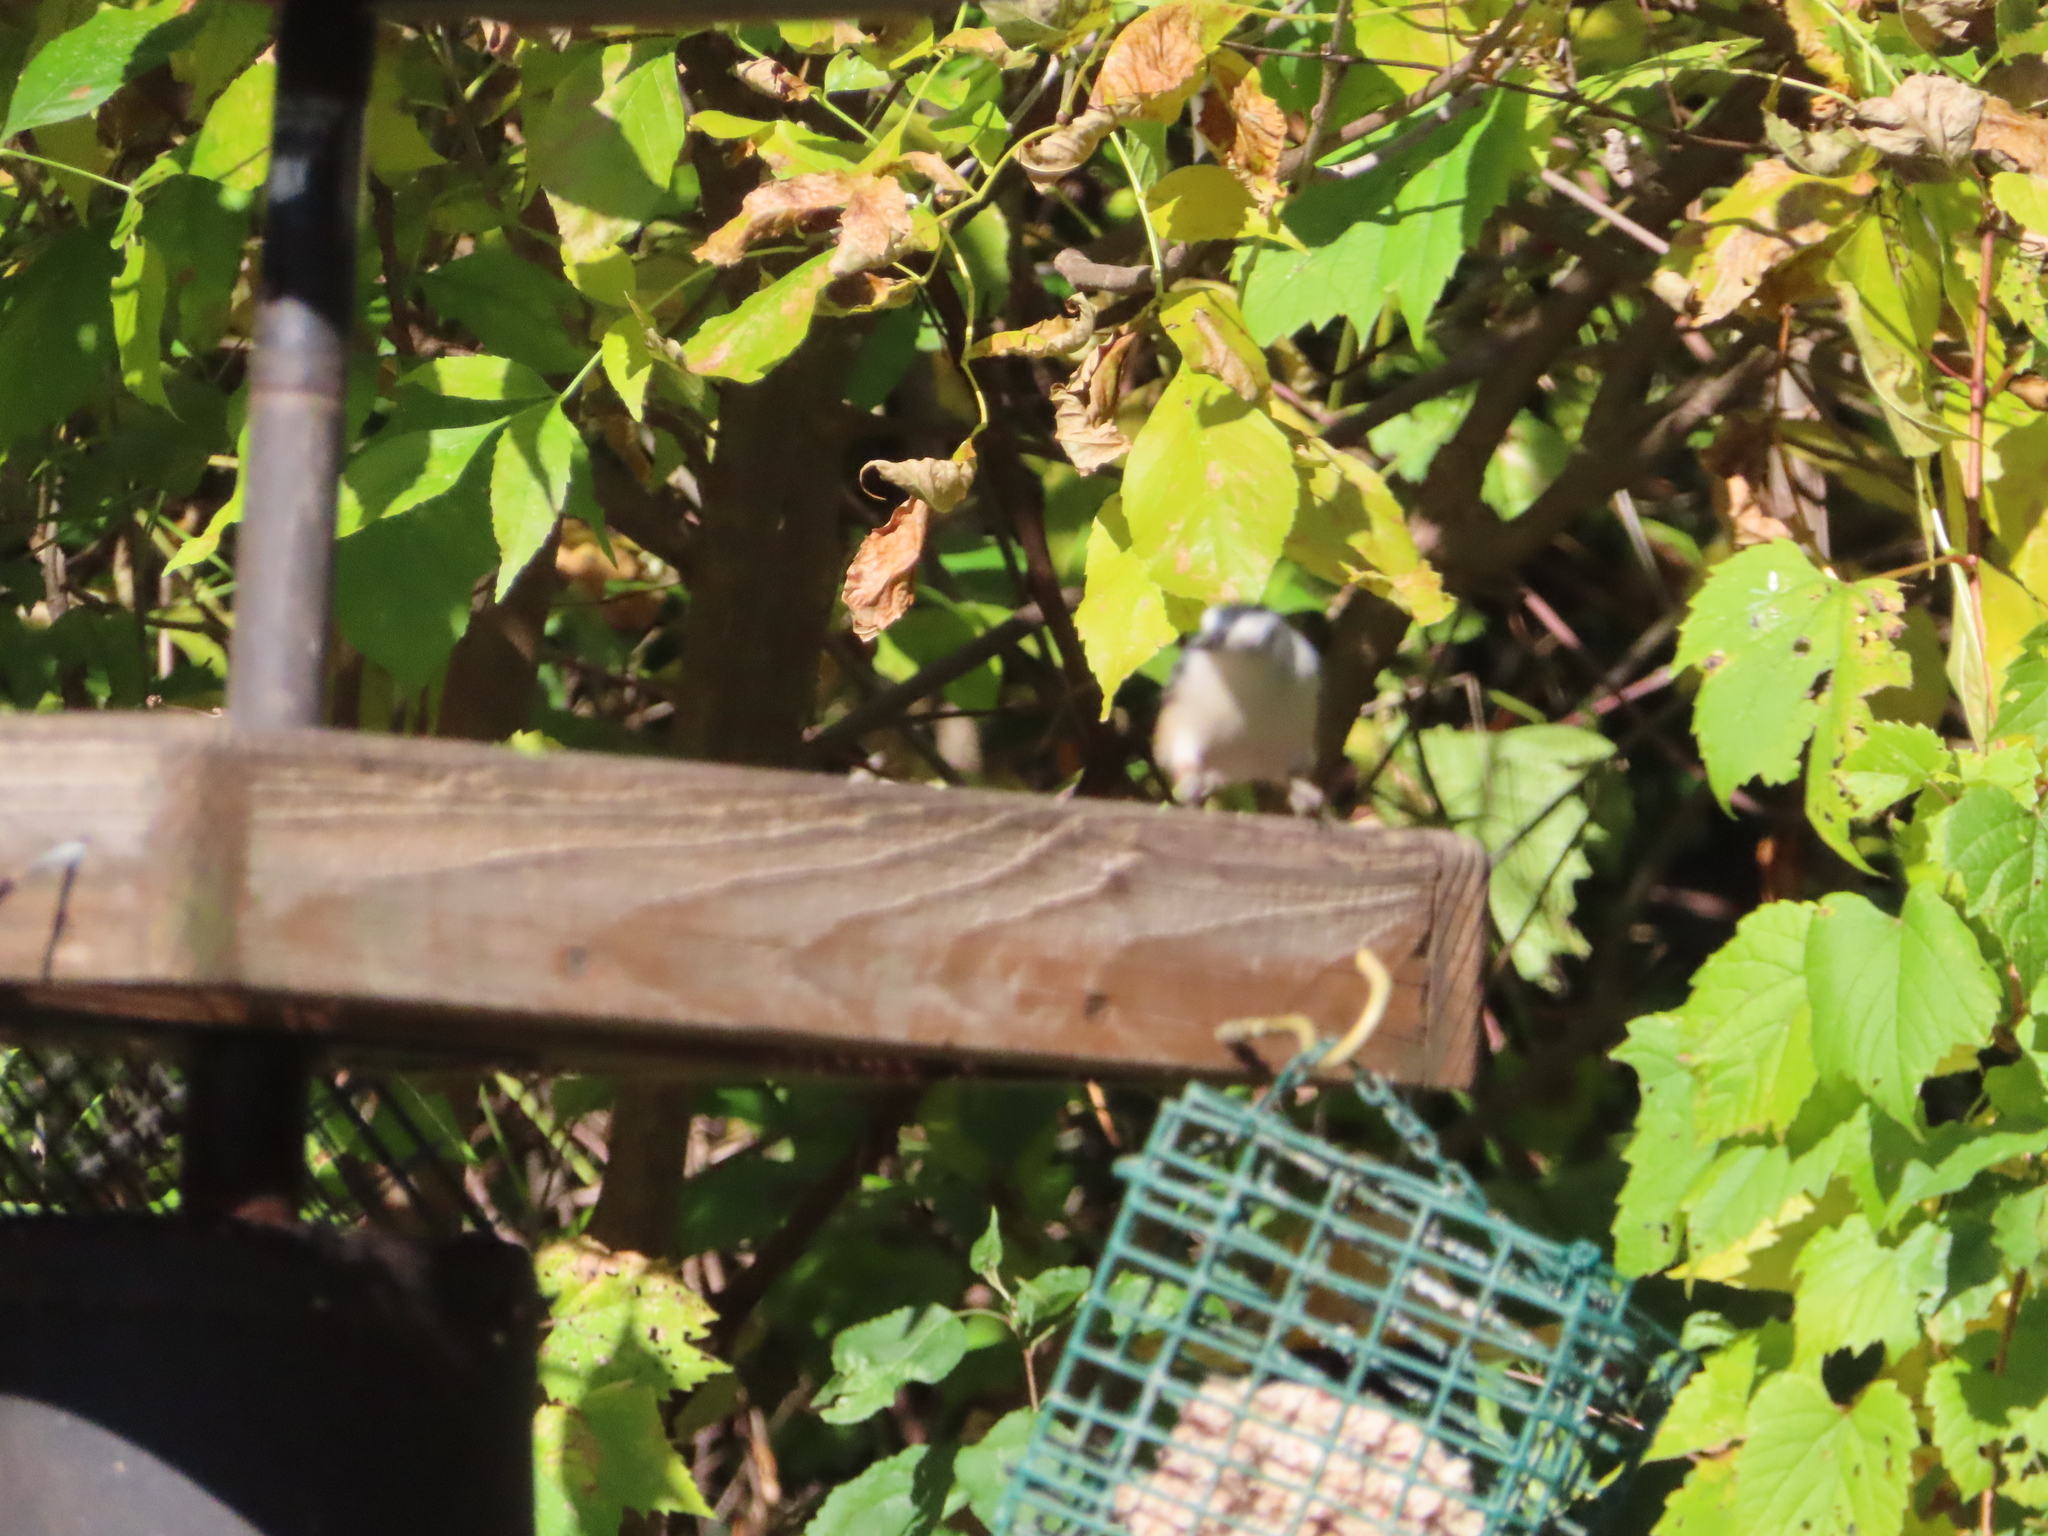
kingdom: Animalia
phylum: Chordata
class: Aves
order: Passeriformes
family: Sittidae
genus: Sitta
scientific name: Sitta carolinensis
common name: White-breasted nuthatch
